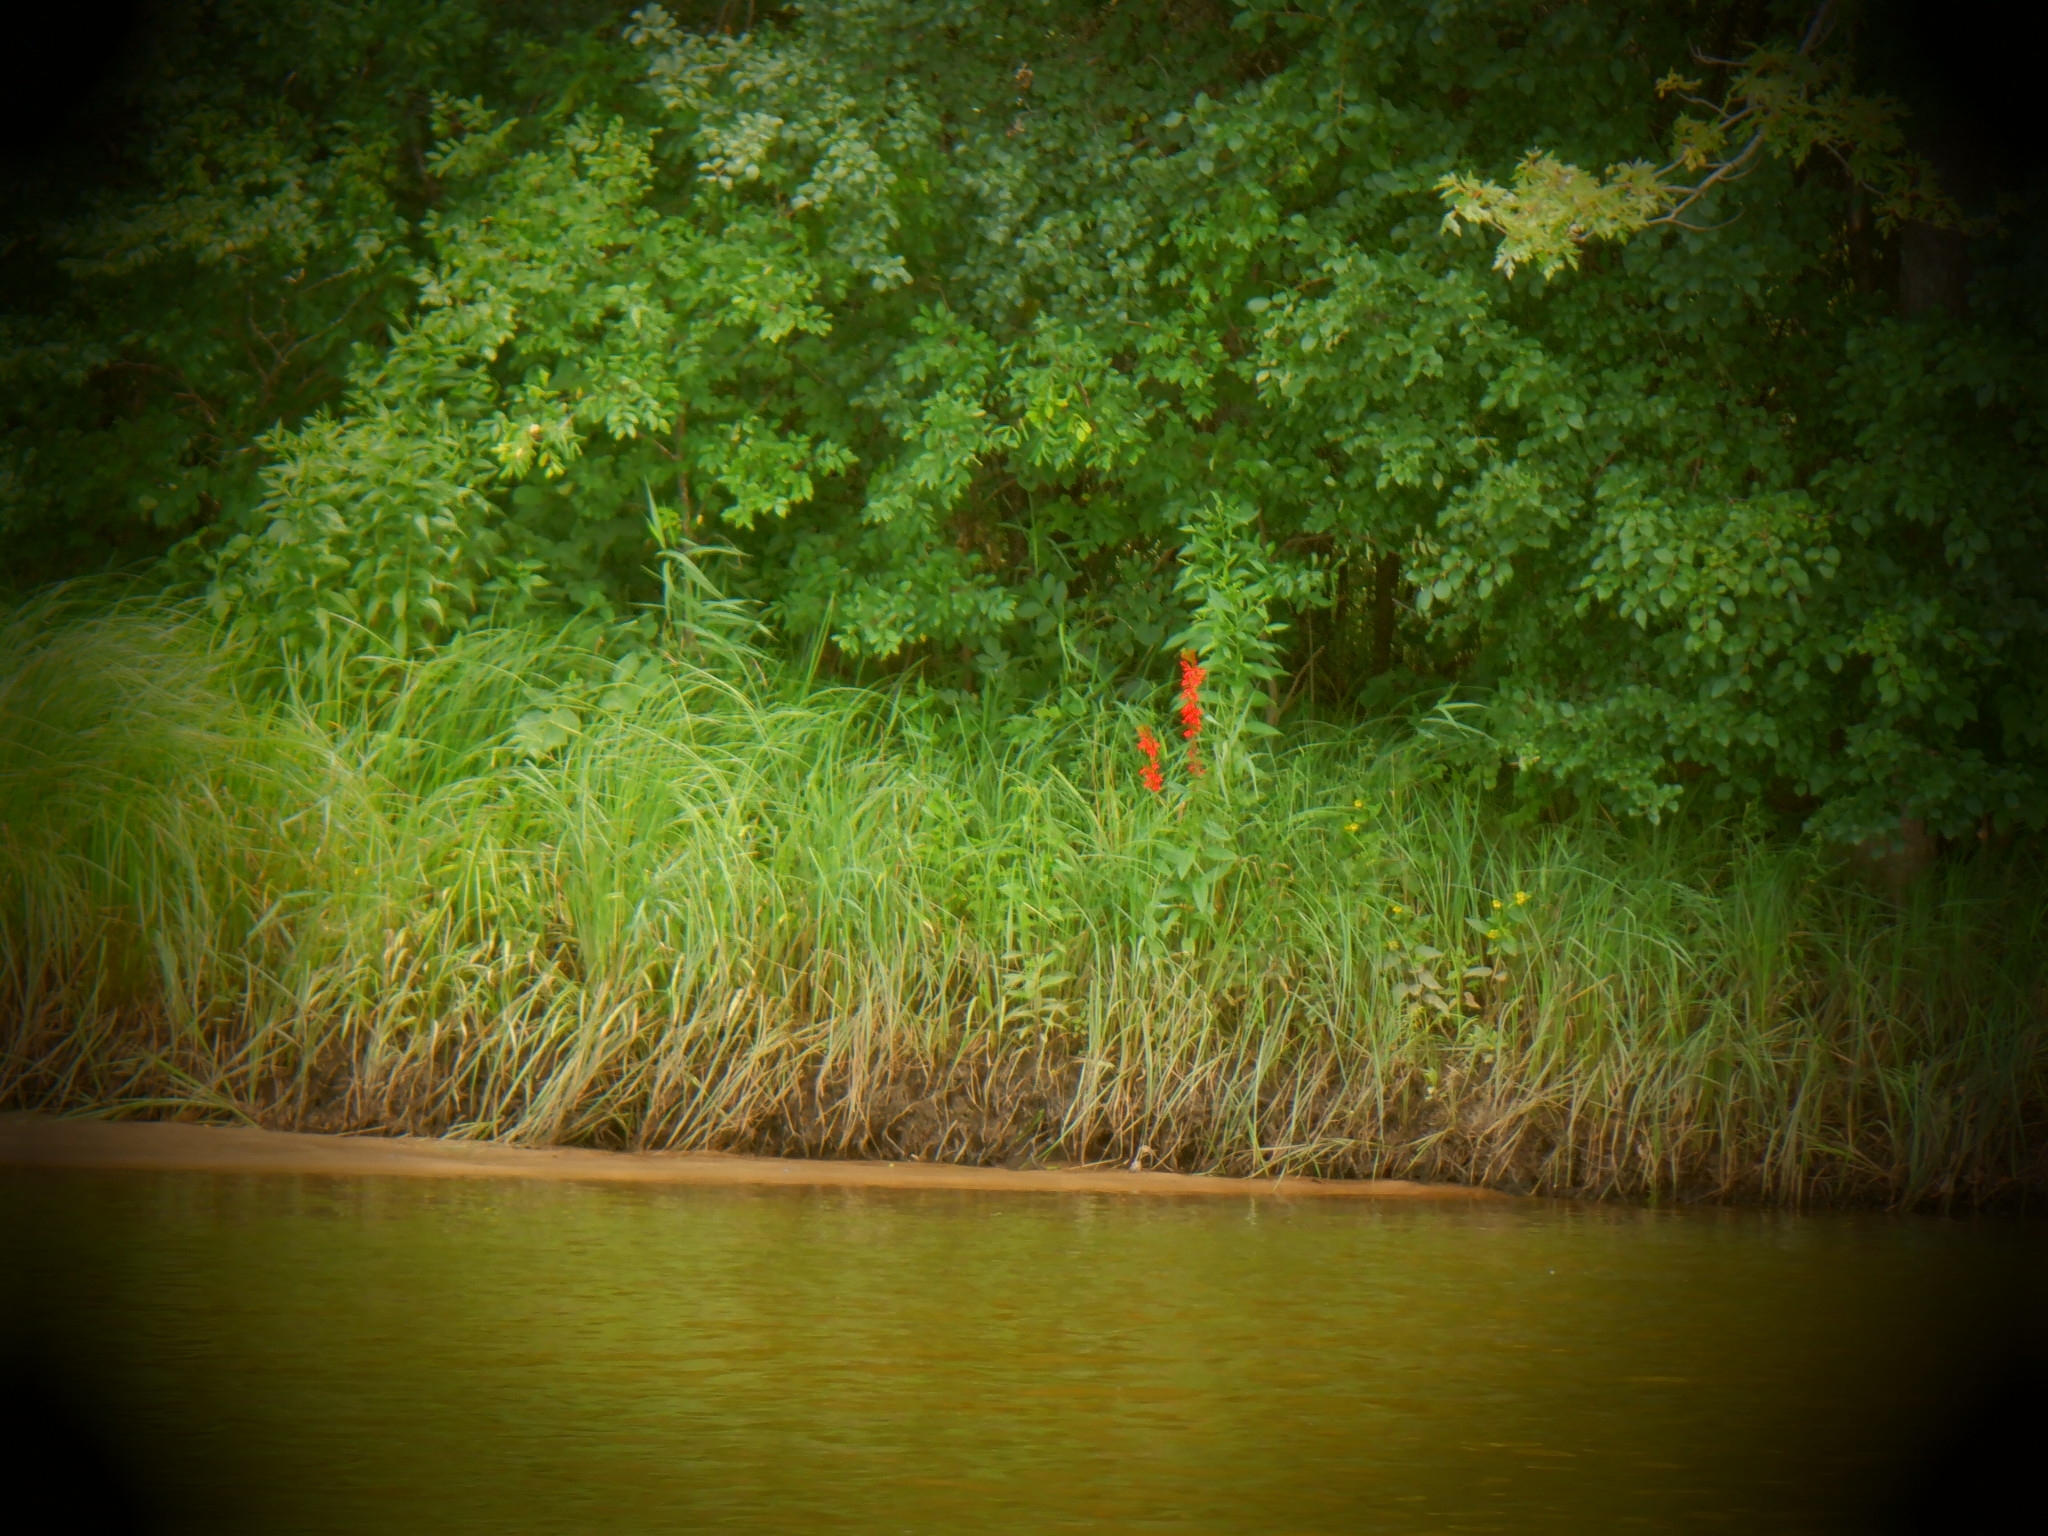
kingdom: Plantae
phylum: Tracheophyta
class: Magnoliopsida
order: Asterales
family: Campanulaceae
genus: Lobelia
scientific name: Lobelia cardinalis
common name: Cardinal flower
